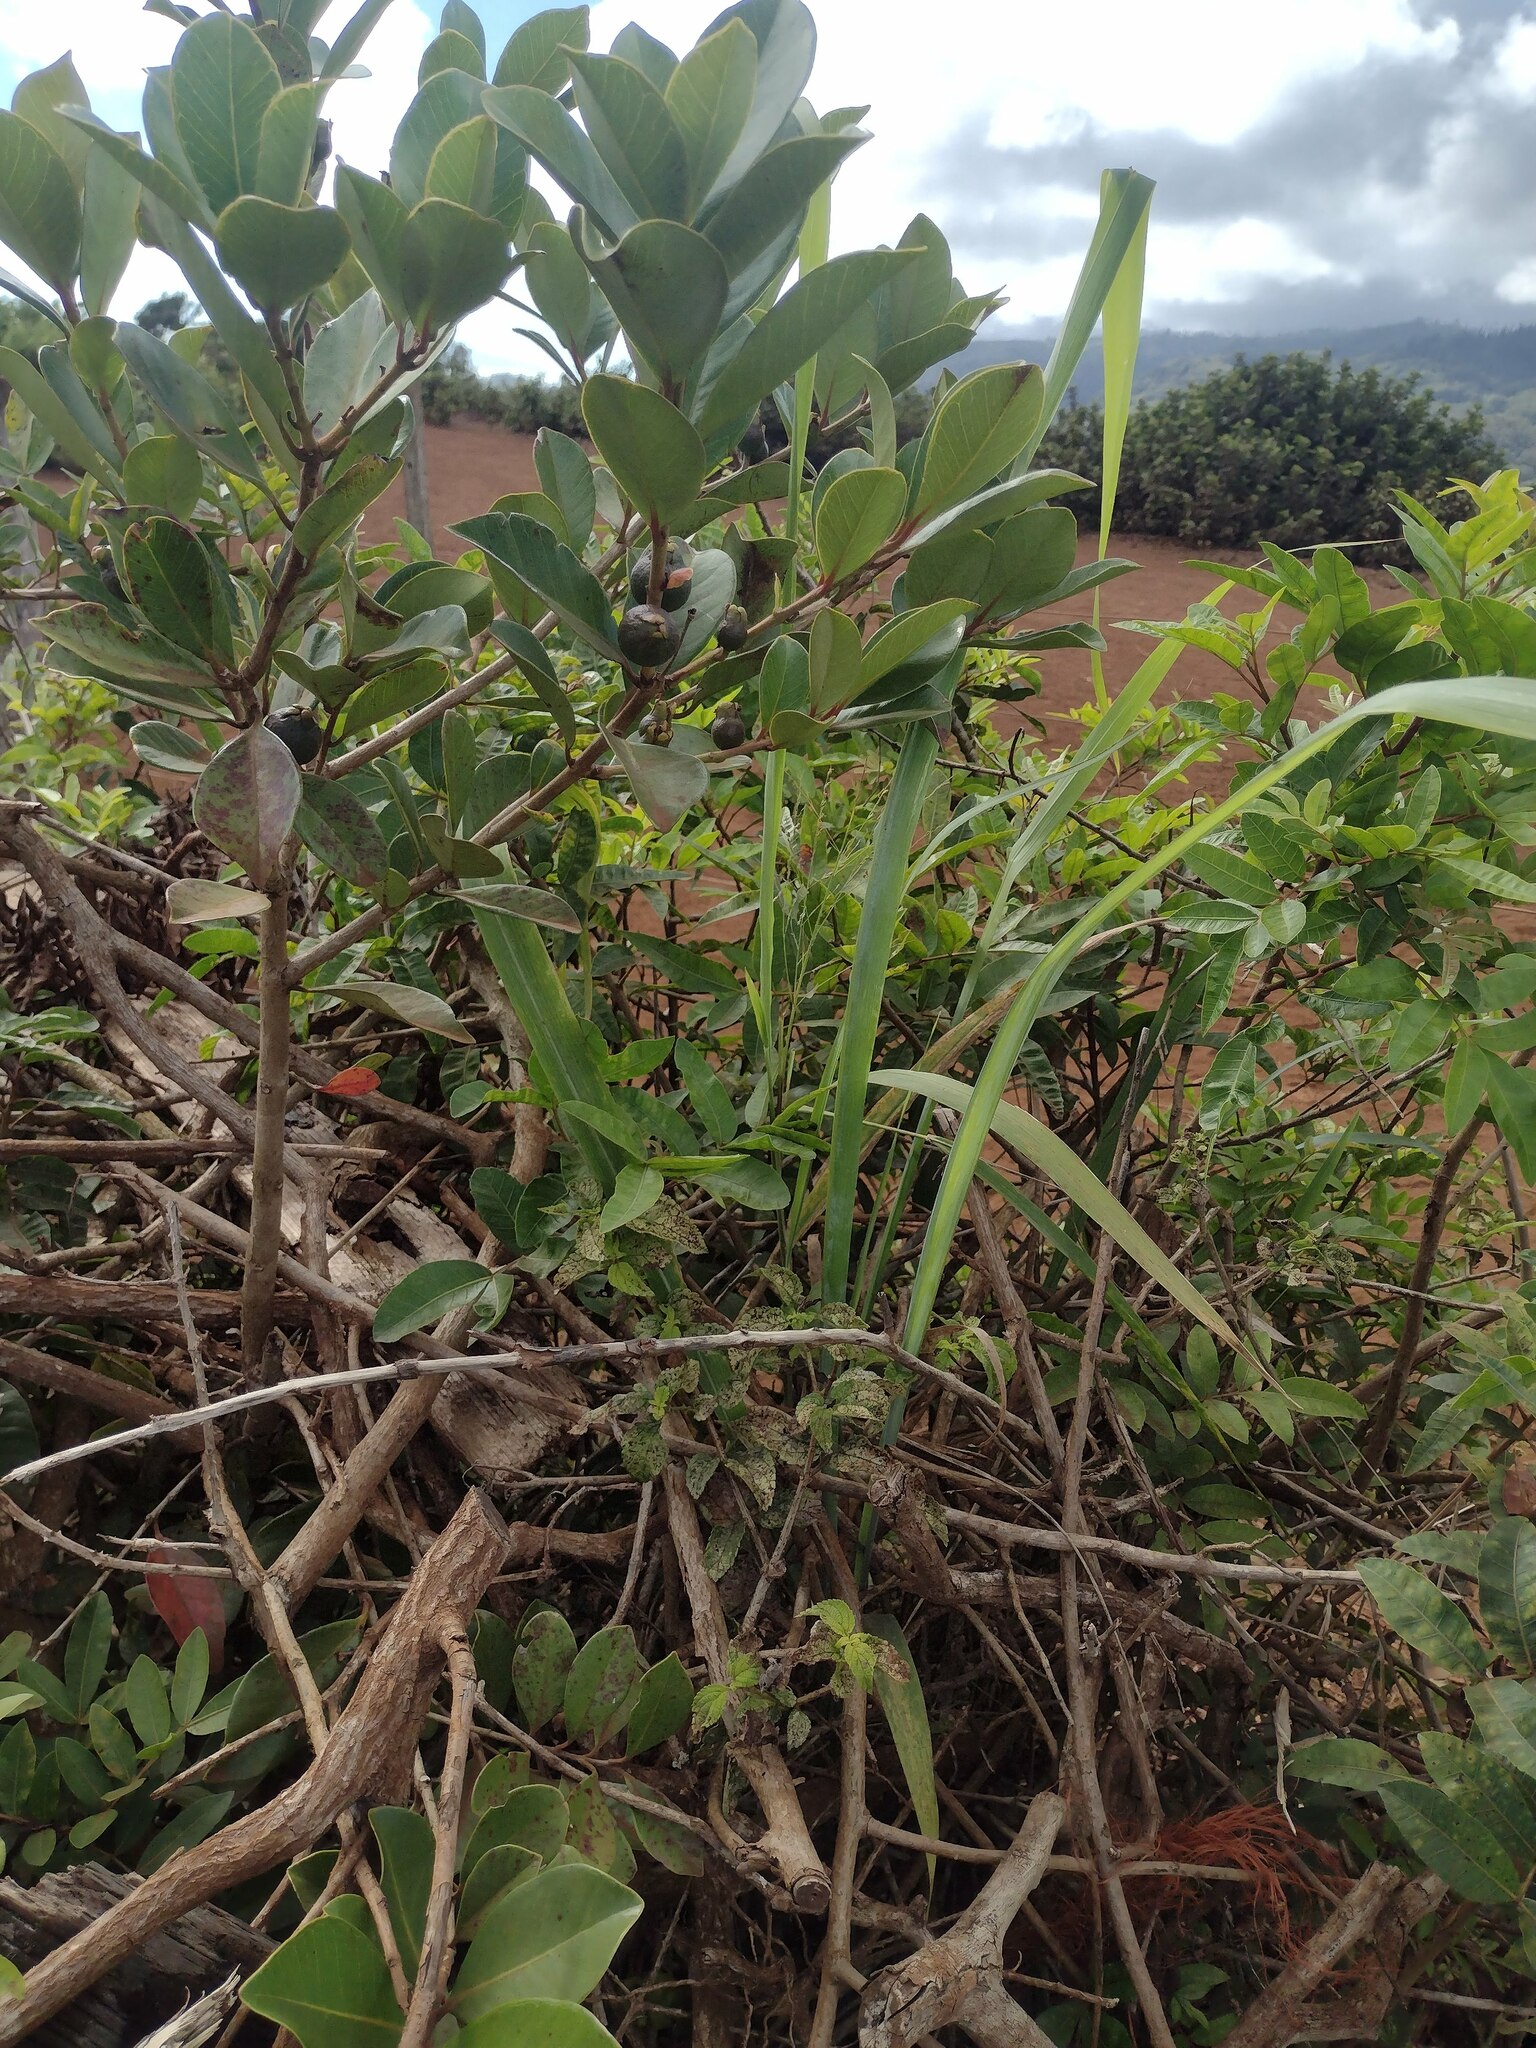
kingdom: Plantae
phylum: Tracheophyta
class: Magnoliopsida
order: Myrtales
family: Myrtaceae
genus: Psidium
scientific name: Psidium cattleianum
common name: Strawberry guava
